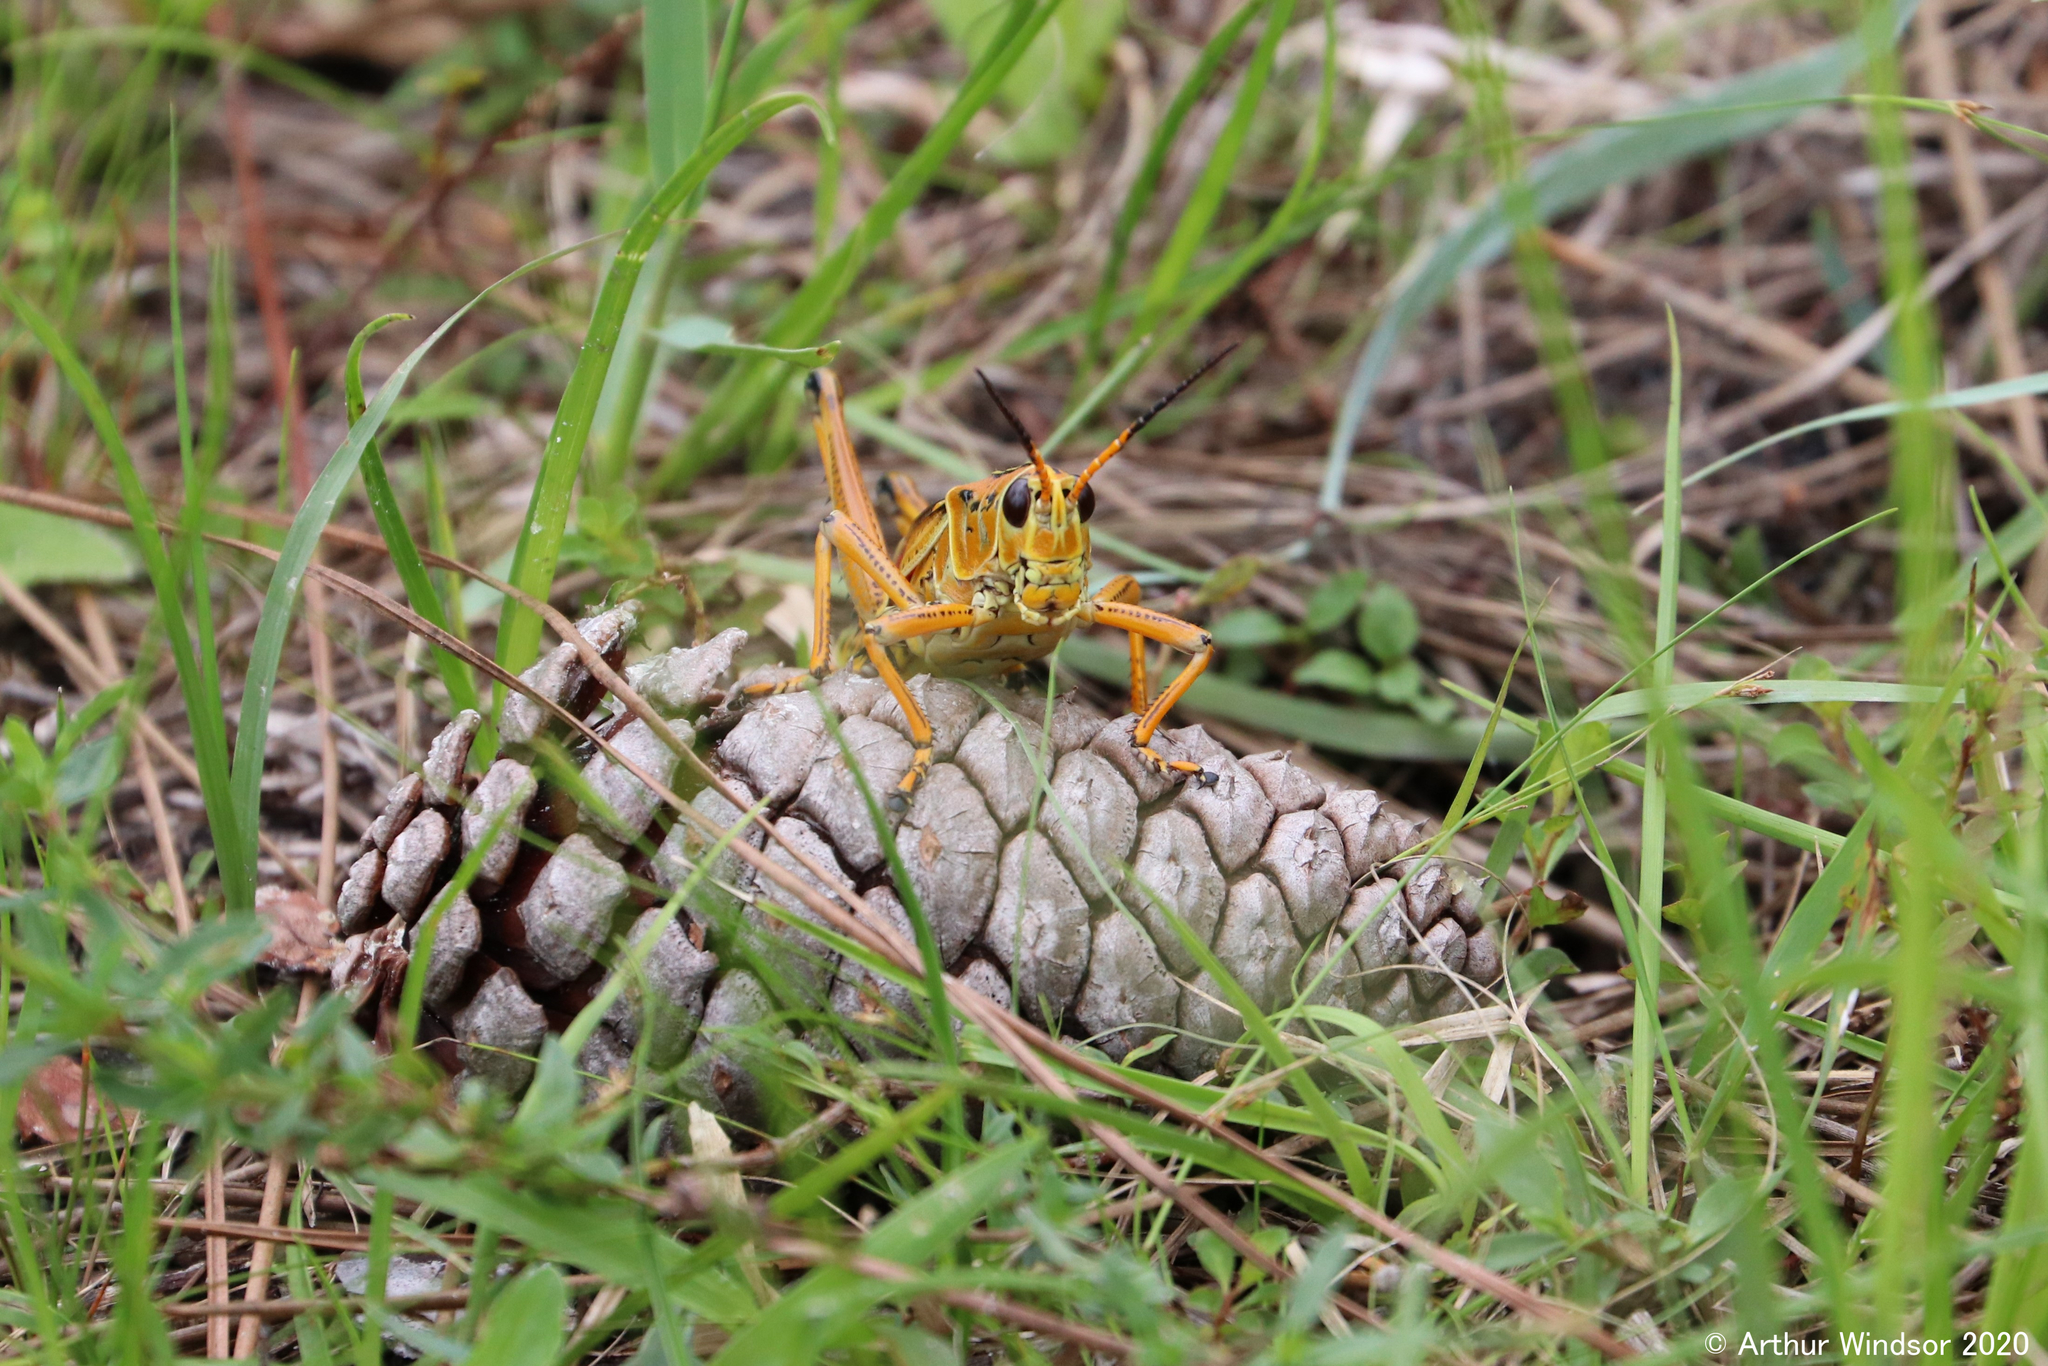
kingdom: Animalia
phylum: Arthropoda
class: Insecta
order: Orthoptera
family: Romaleidae
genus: Romalea
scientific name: Romalea microptera
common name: Eastern lubber grasshopper
